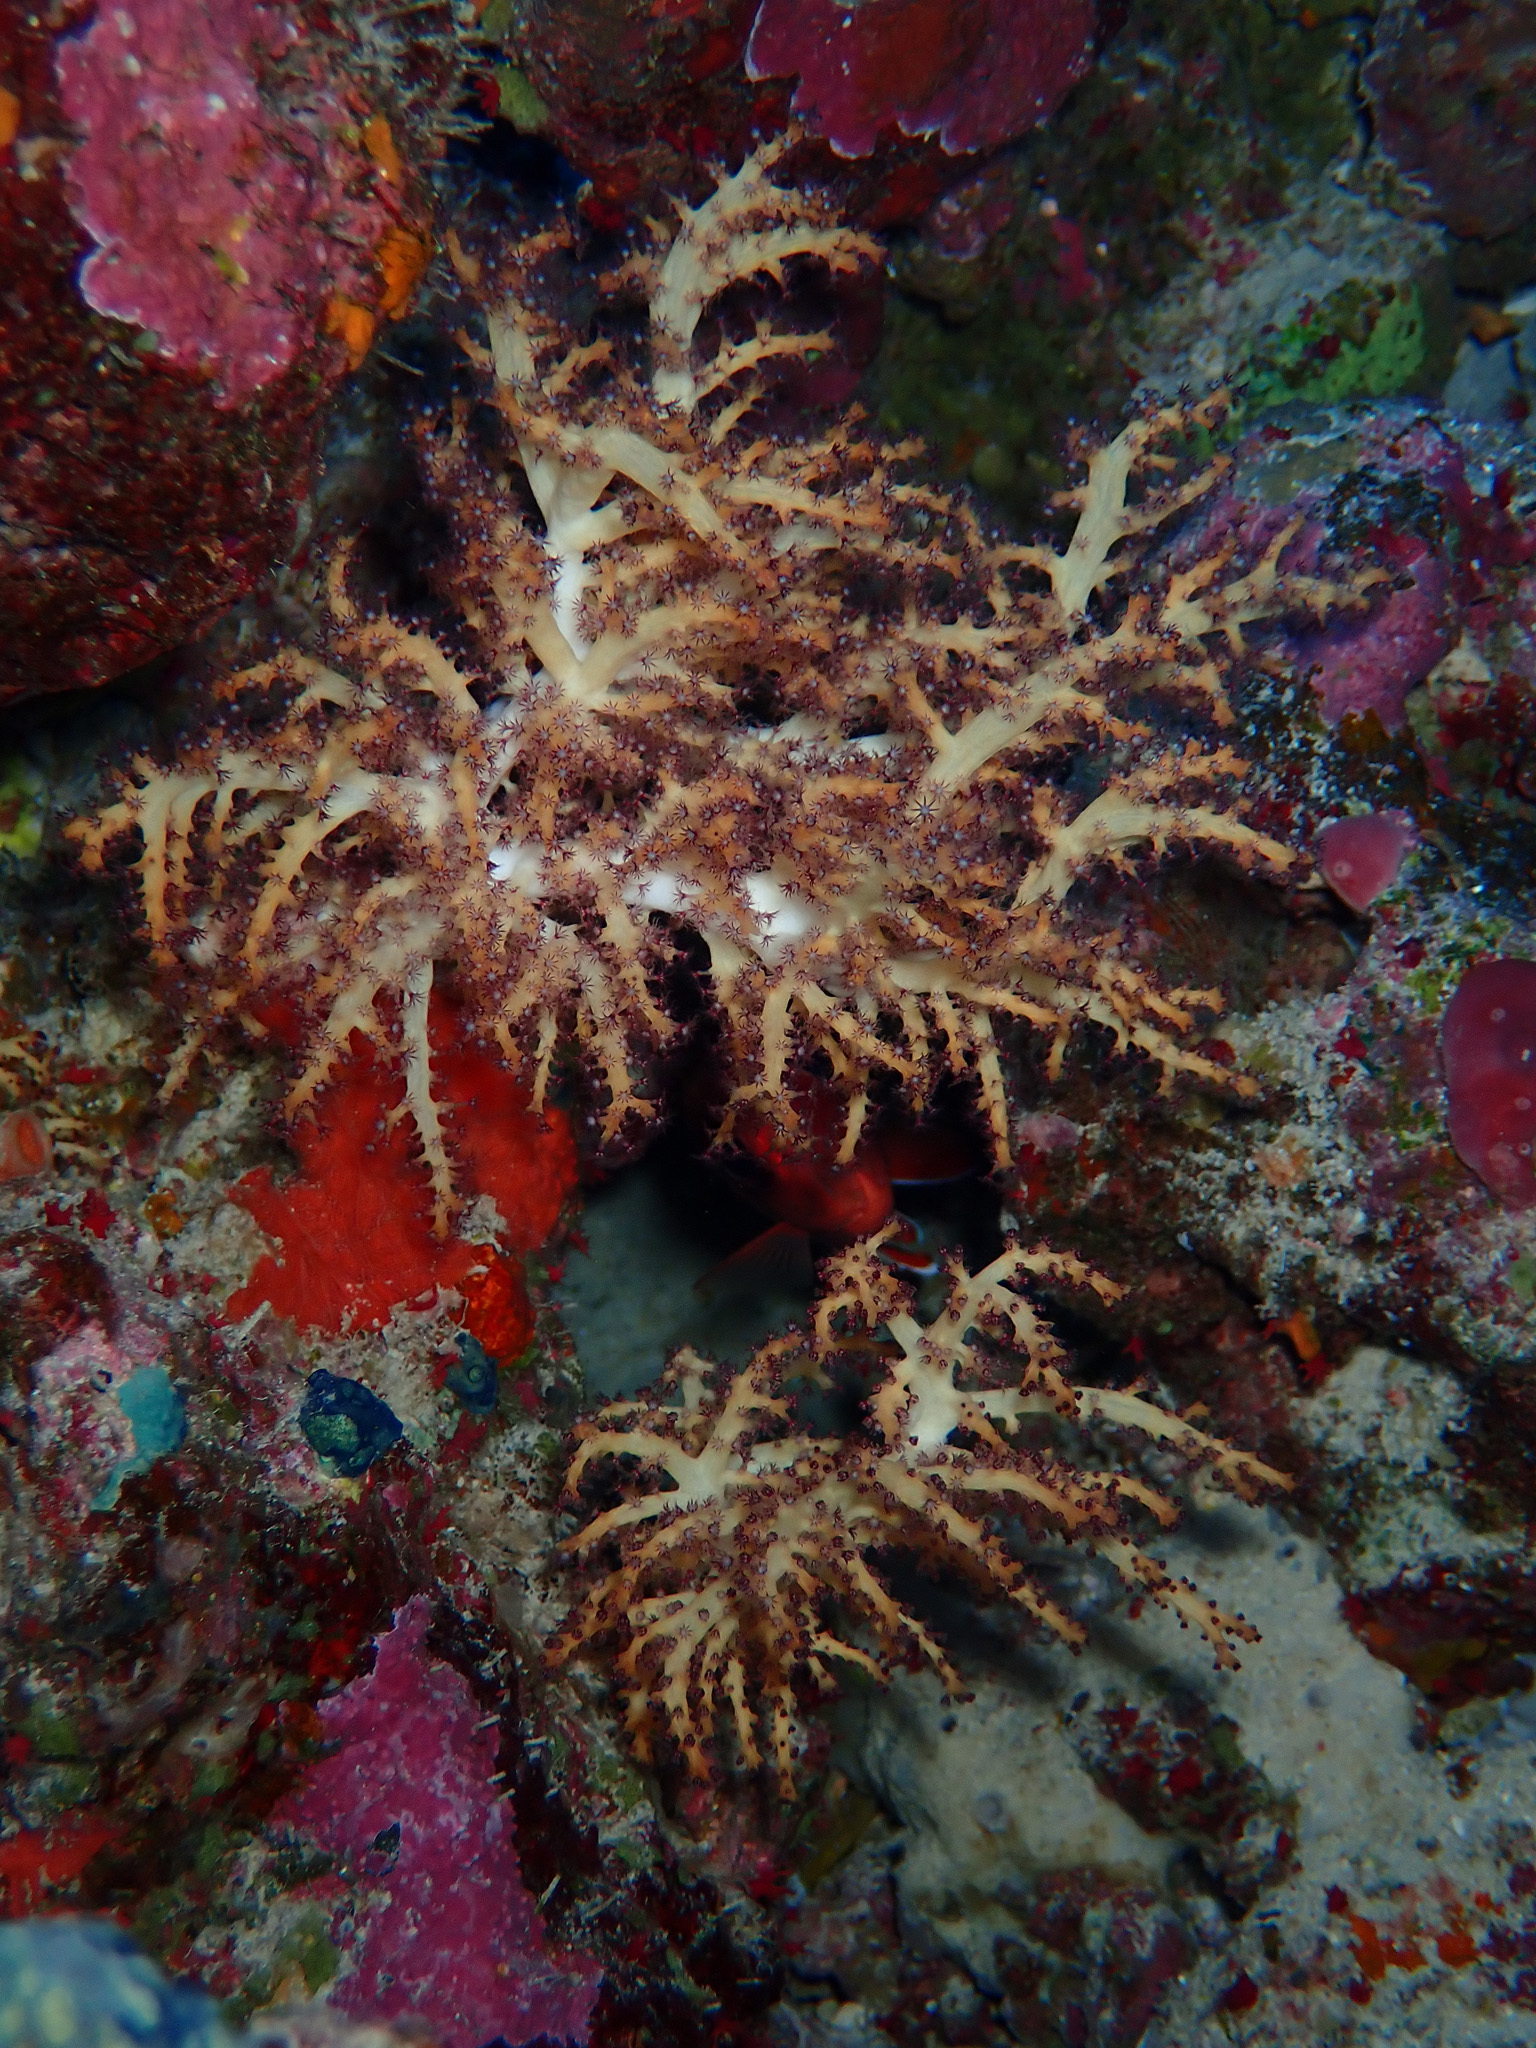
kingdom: Animalia
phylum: Cnidaria
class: Anthozoa
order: Malacalcyonacea
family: Siphonogorgiidae
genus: Chironephthya
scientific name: Chironephthya
